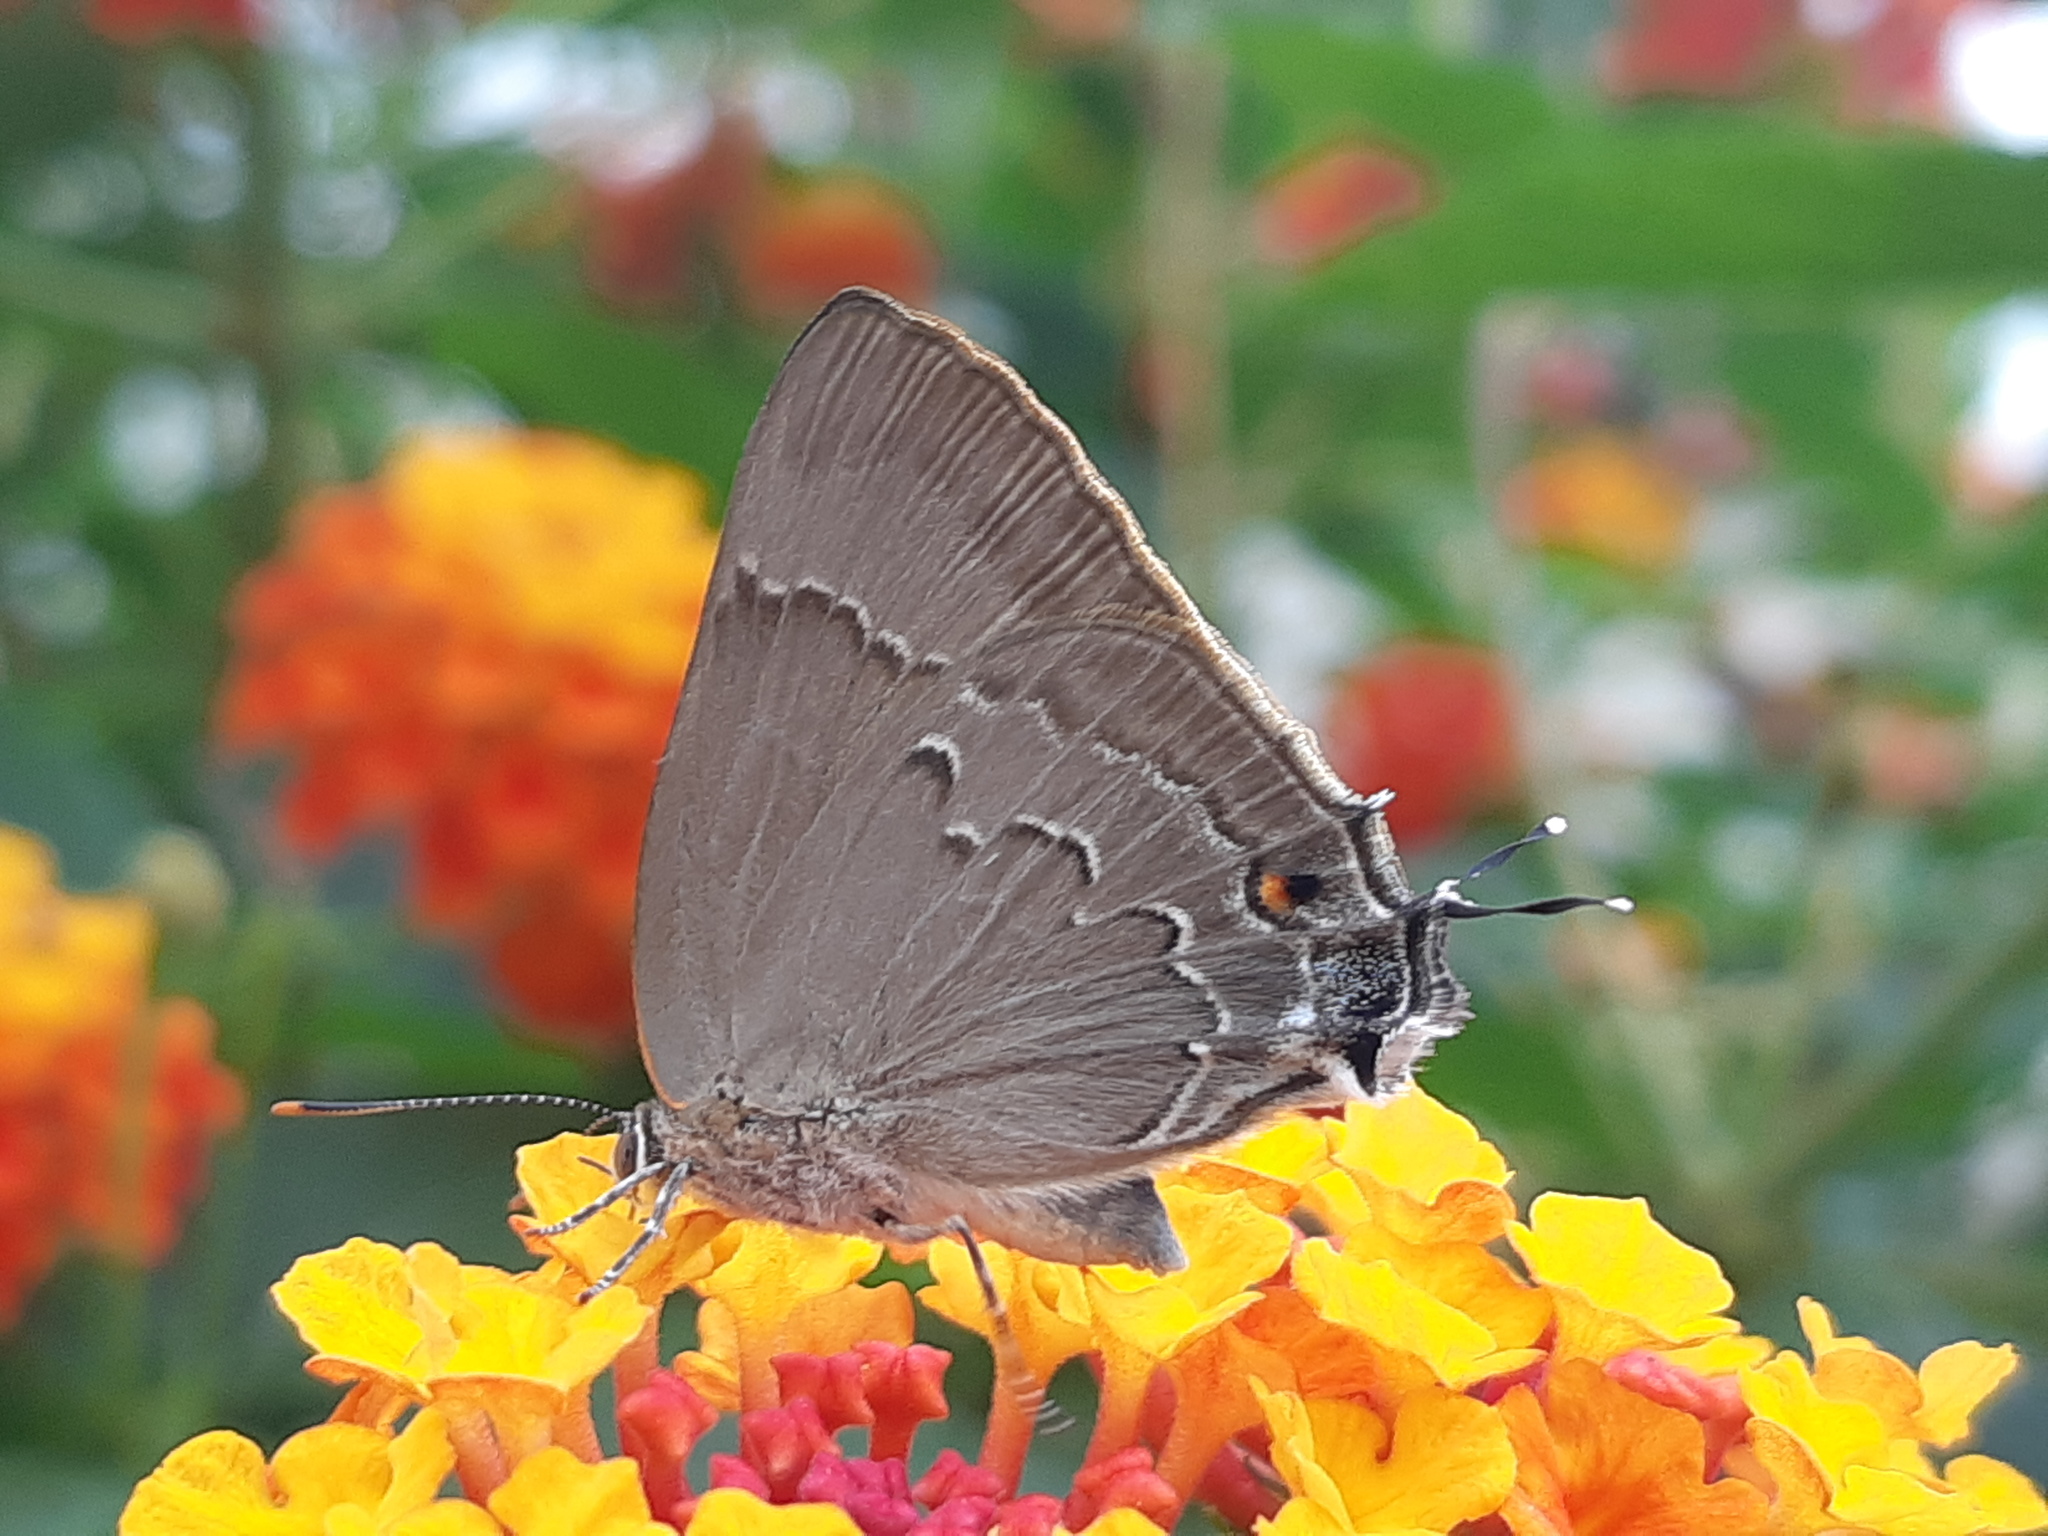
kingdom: Animalia
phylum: Arthropoda
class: Insecta
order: Lepidoptera
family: Lycaenidae
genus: Thecla
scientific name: Thecla marius
